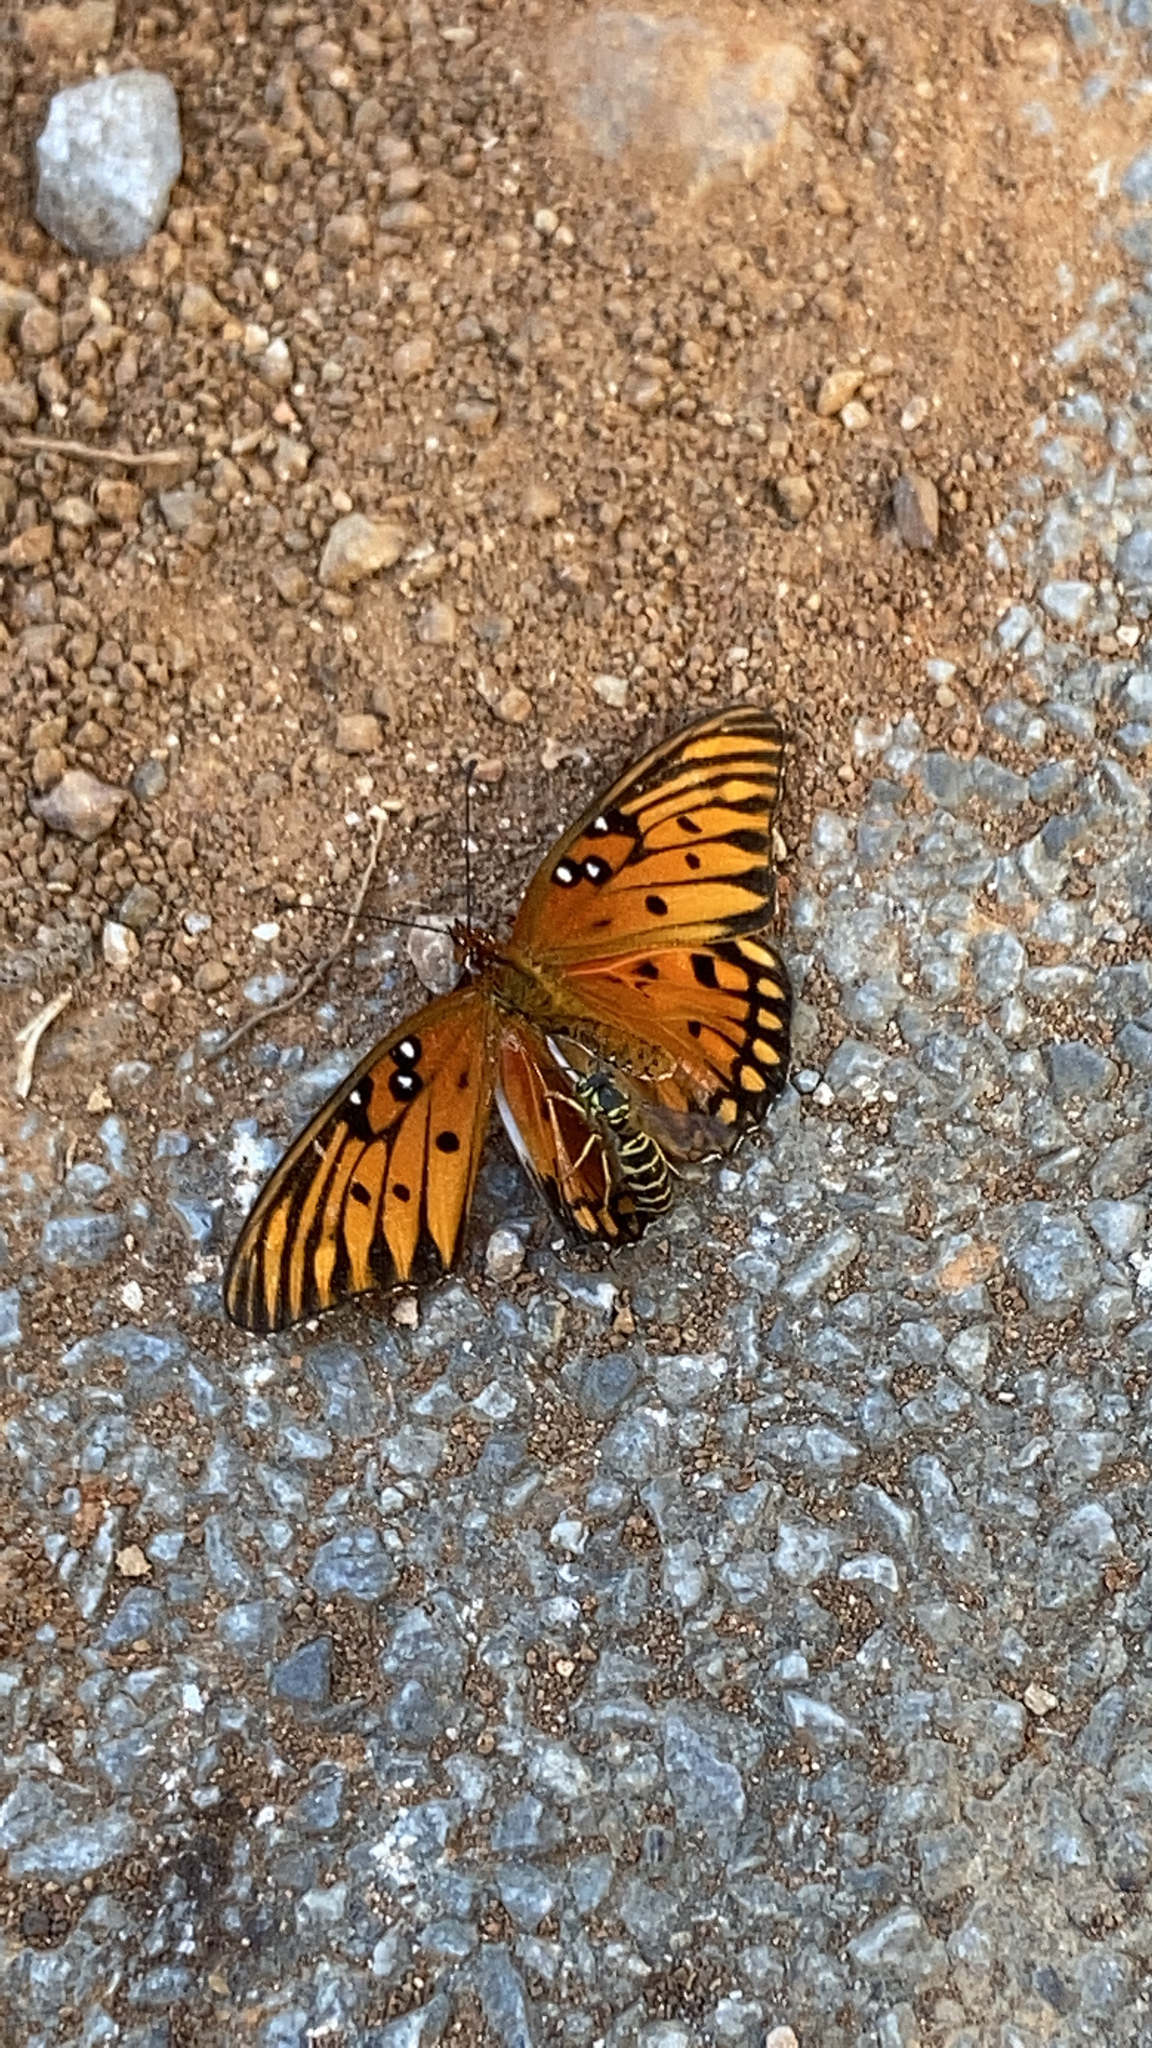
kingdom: Animalia
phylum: Arthropoda
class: Insecta
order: Lepidoptera
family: Nymphalidae
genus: Dione
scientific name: Dione vanillae
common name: Gulf fritillary
